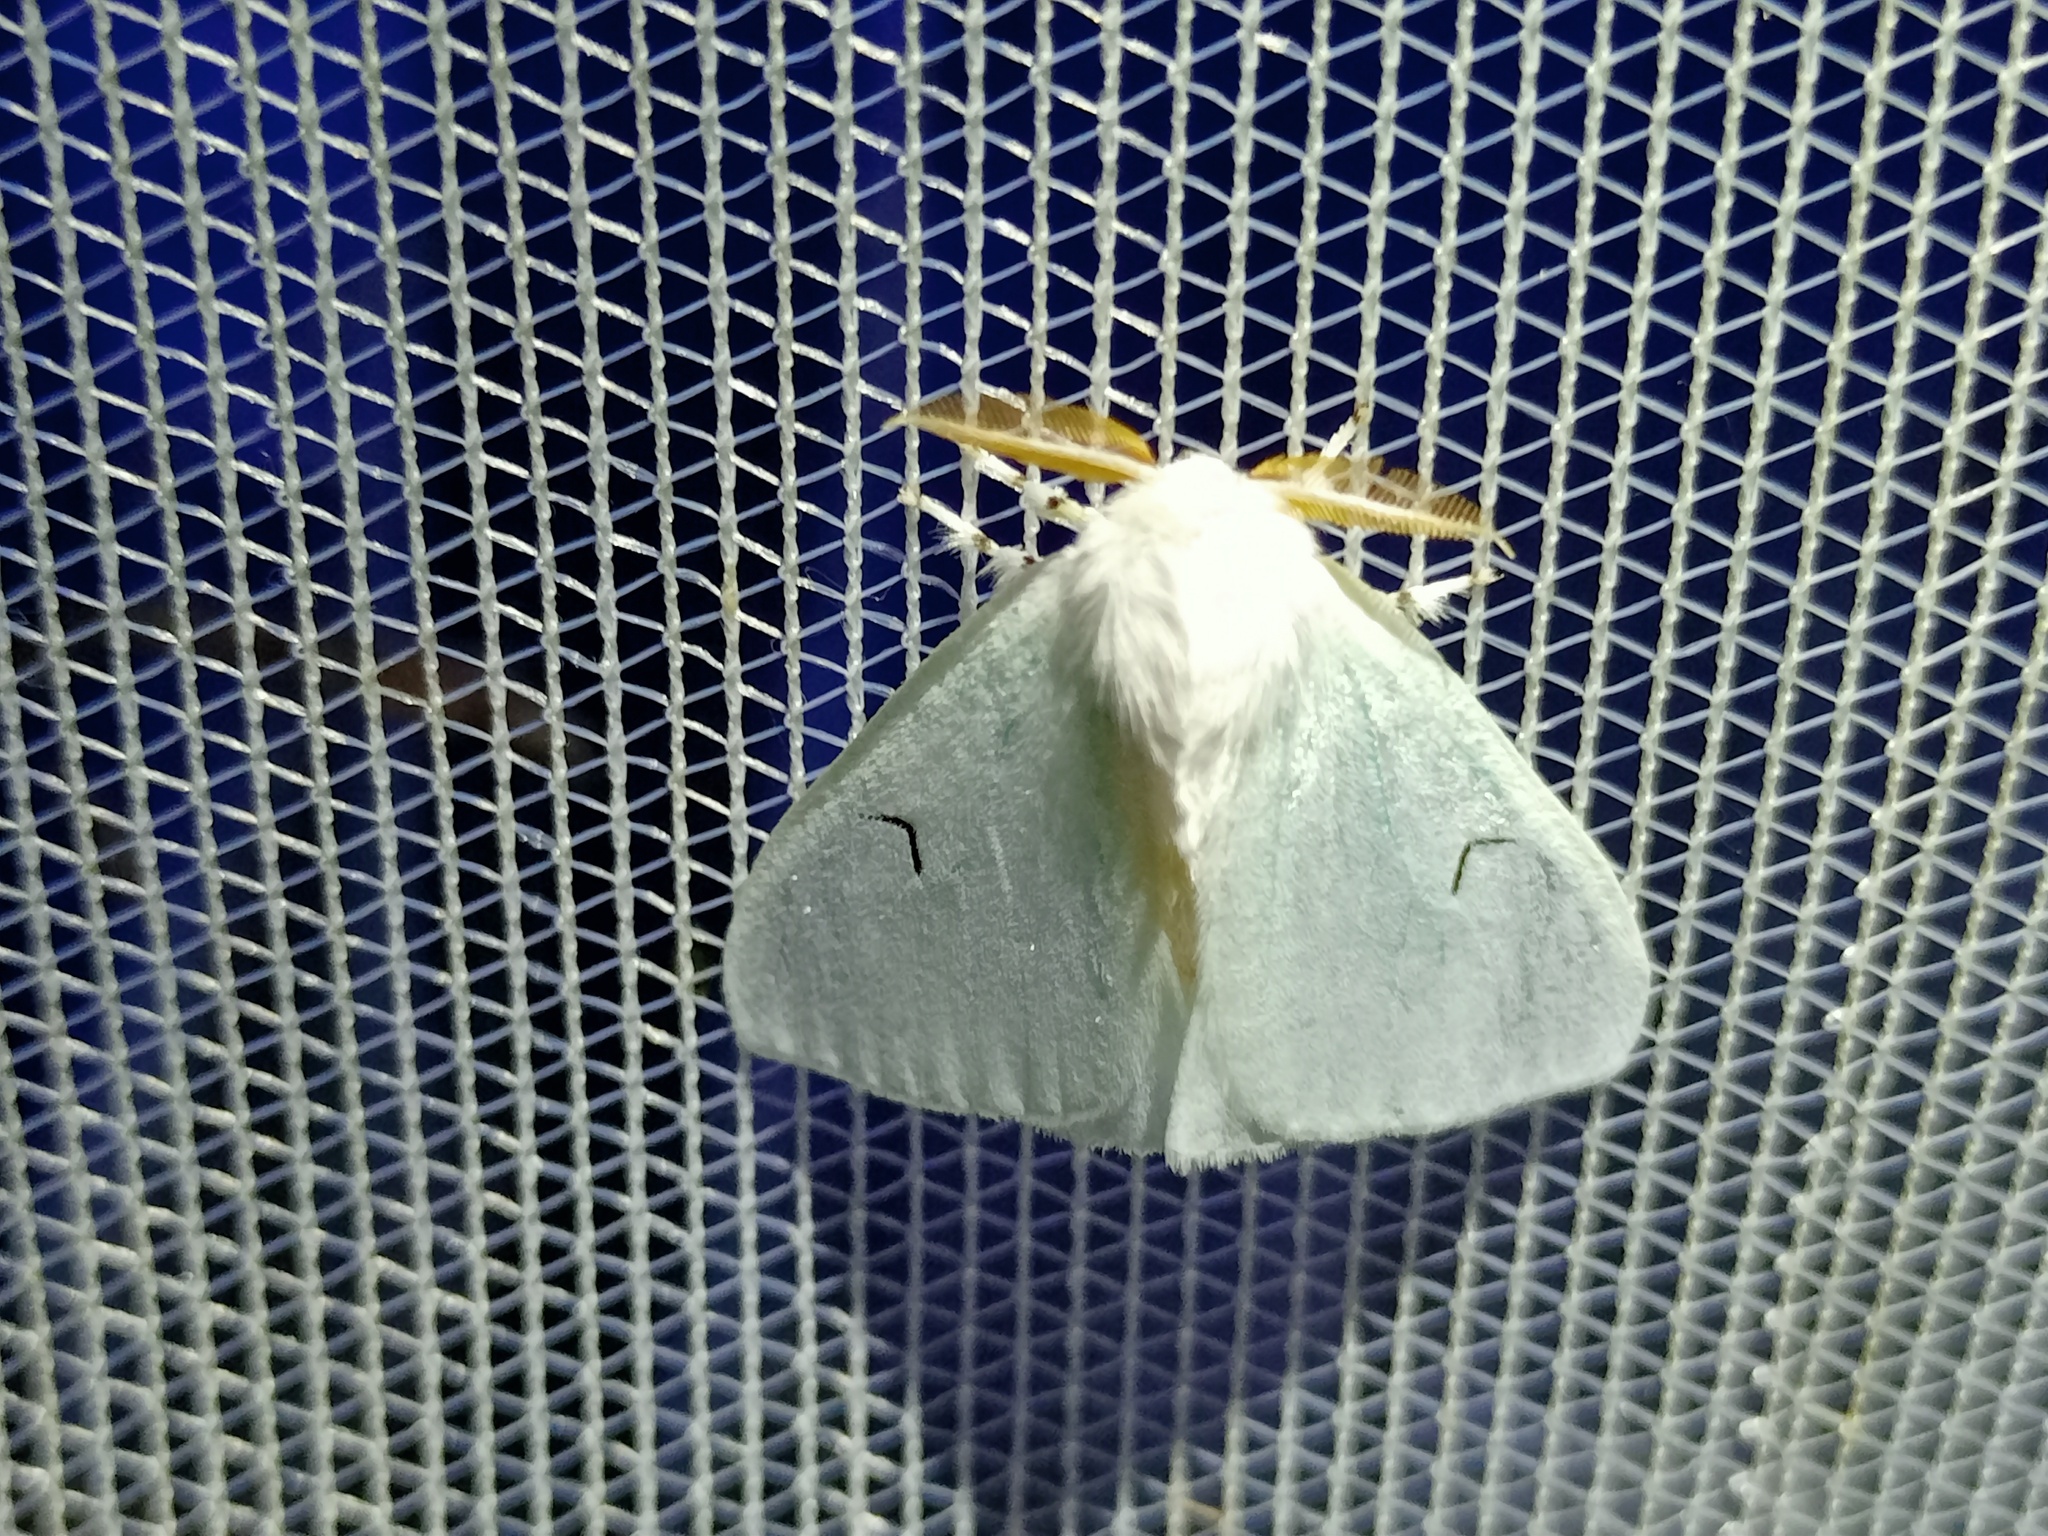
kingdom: Animalia
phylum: Arthropoda
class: Insecta
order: Lepidoptera
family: Erebidae
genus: Arctornis
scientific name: Arctornis l-nigrum
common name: Black v moth
